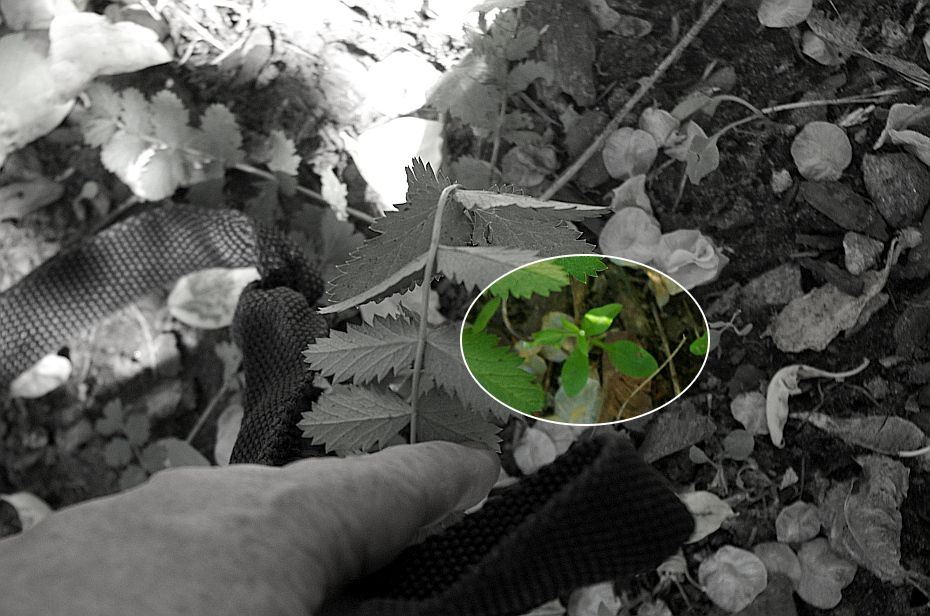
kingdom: Plantae
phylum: Tracheophyta
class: Magnoliopsida
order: Boraginales
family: Boraginaceae
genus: Myosotis
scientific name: Myosotis sparsiflora
